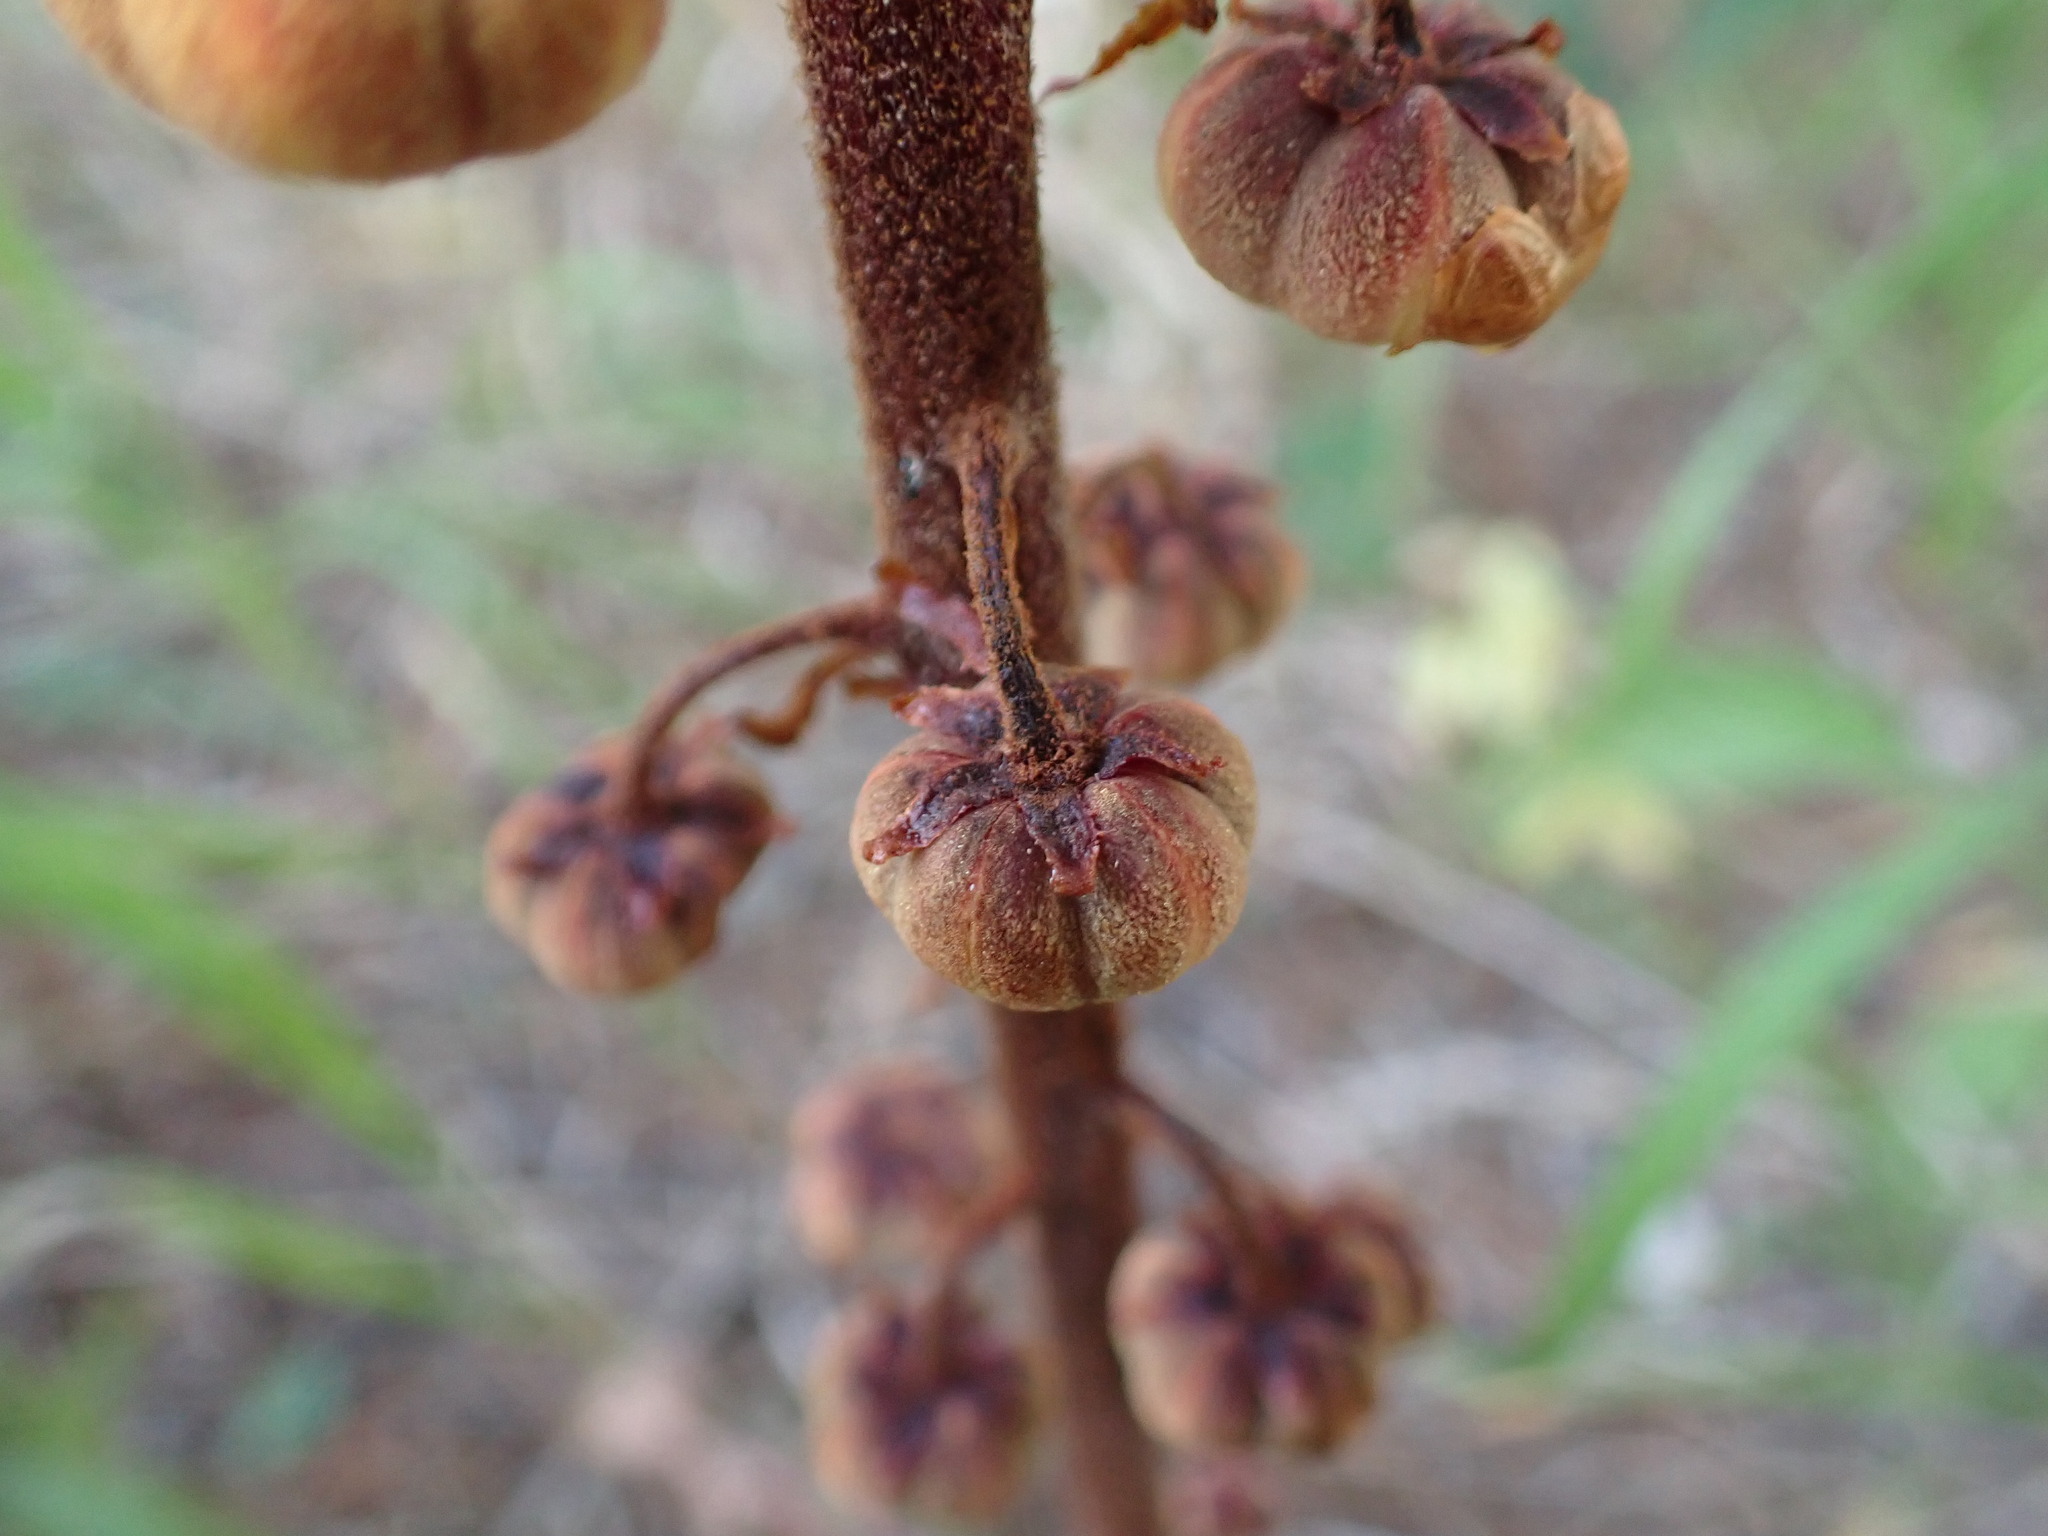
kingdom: Plantae
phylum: Tracheophyta
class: Magnoliopsida
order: Ericales
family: Ericaceae
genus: Pterospora
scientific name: Pterospora andromedea
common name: Giant bird's-nest
